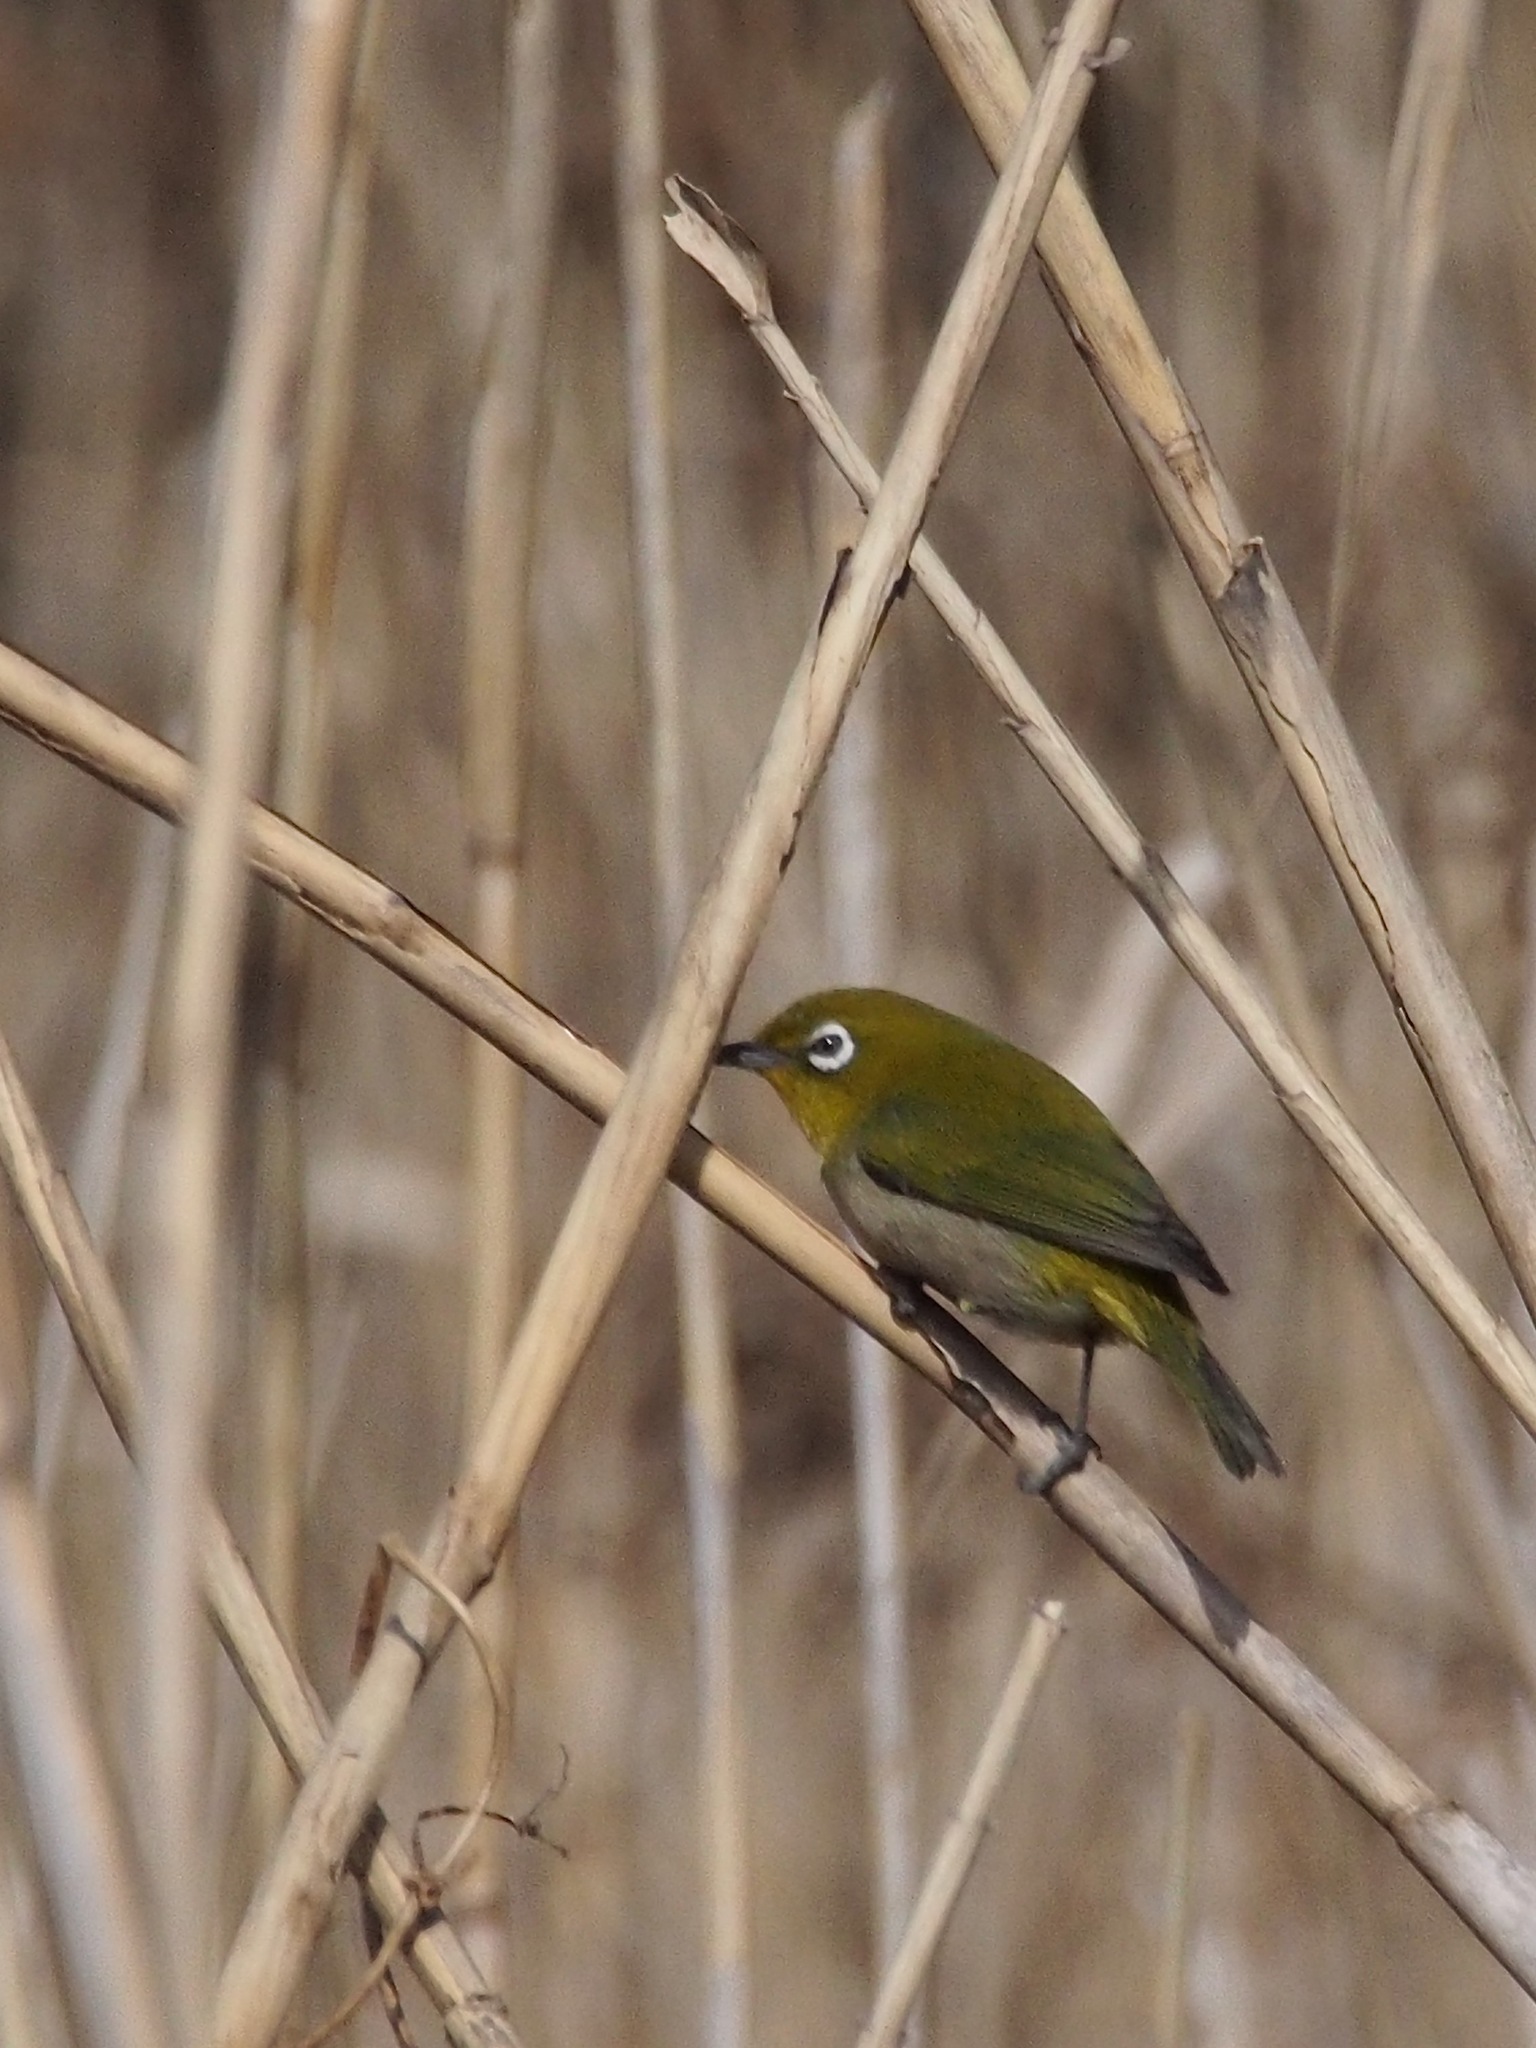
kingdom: Animalia
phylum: Chordata
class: Aves
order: Passeriformes
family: Zosteropidae
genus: Zosterops
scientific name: Zosterops japonicus
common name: Japanese white-eye
